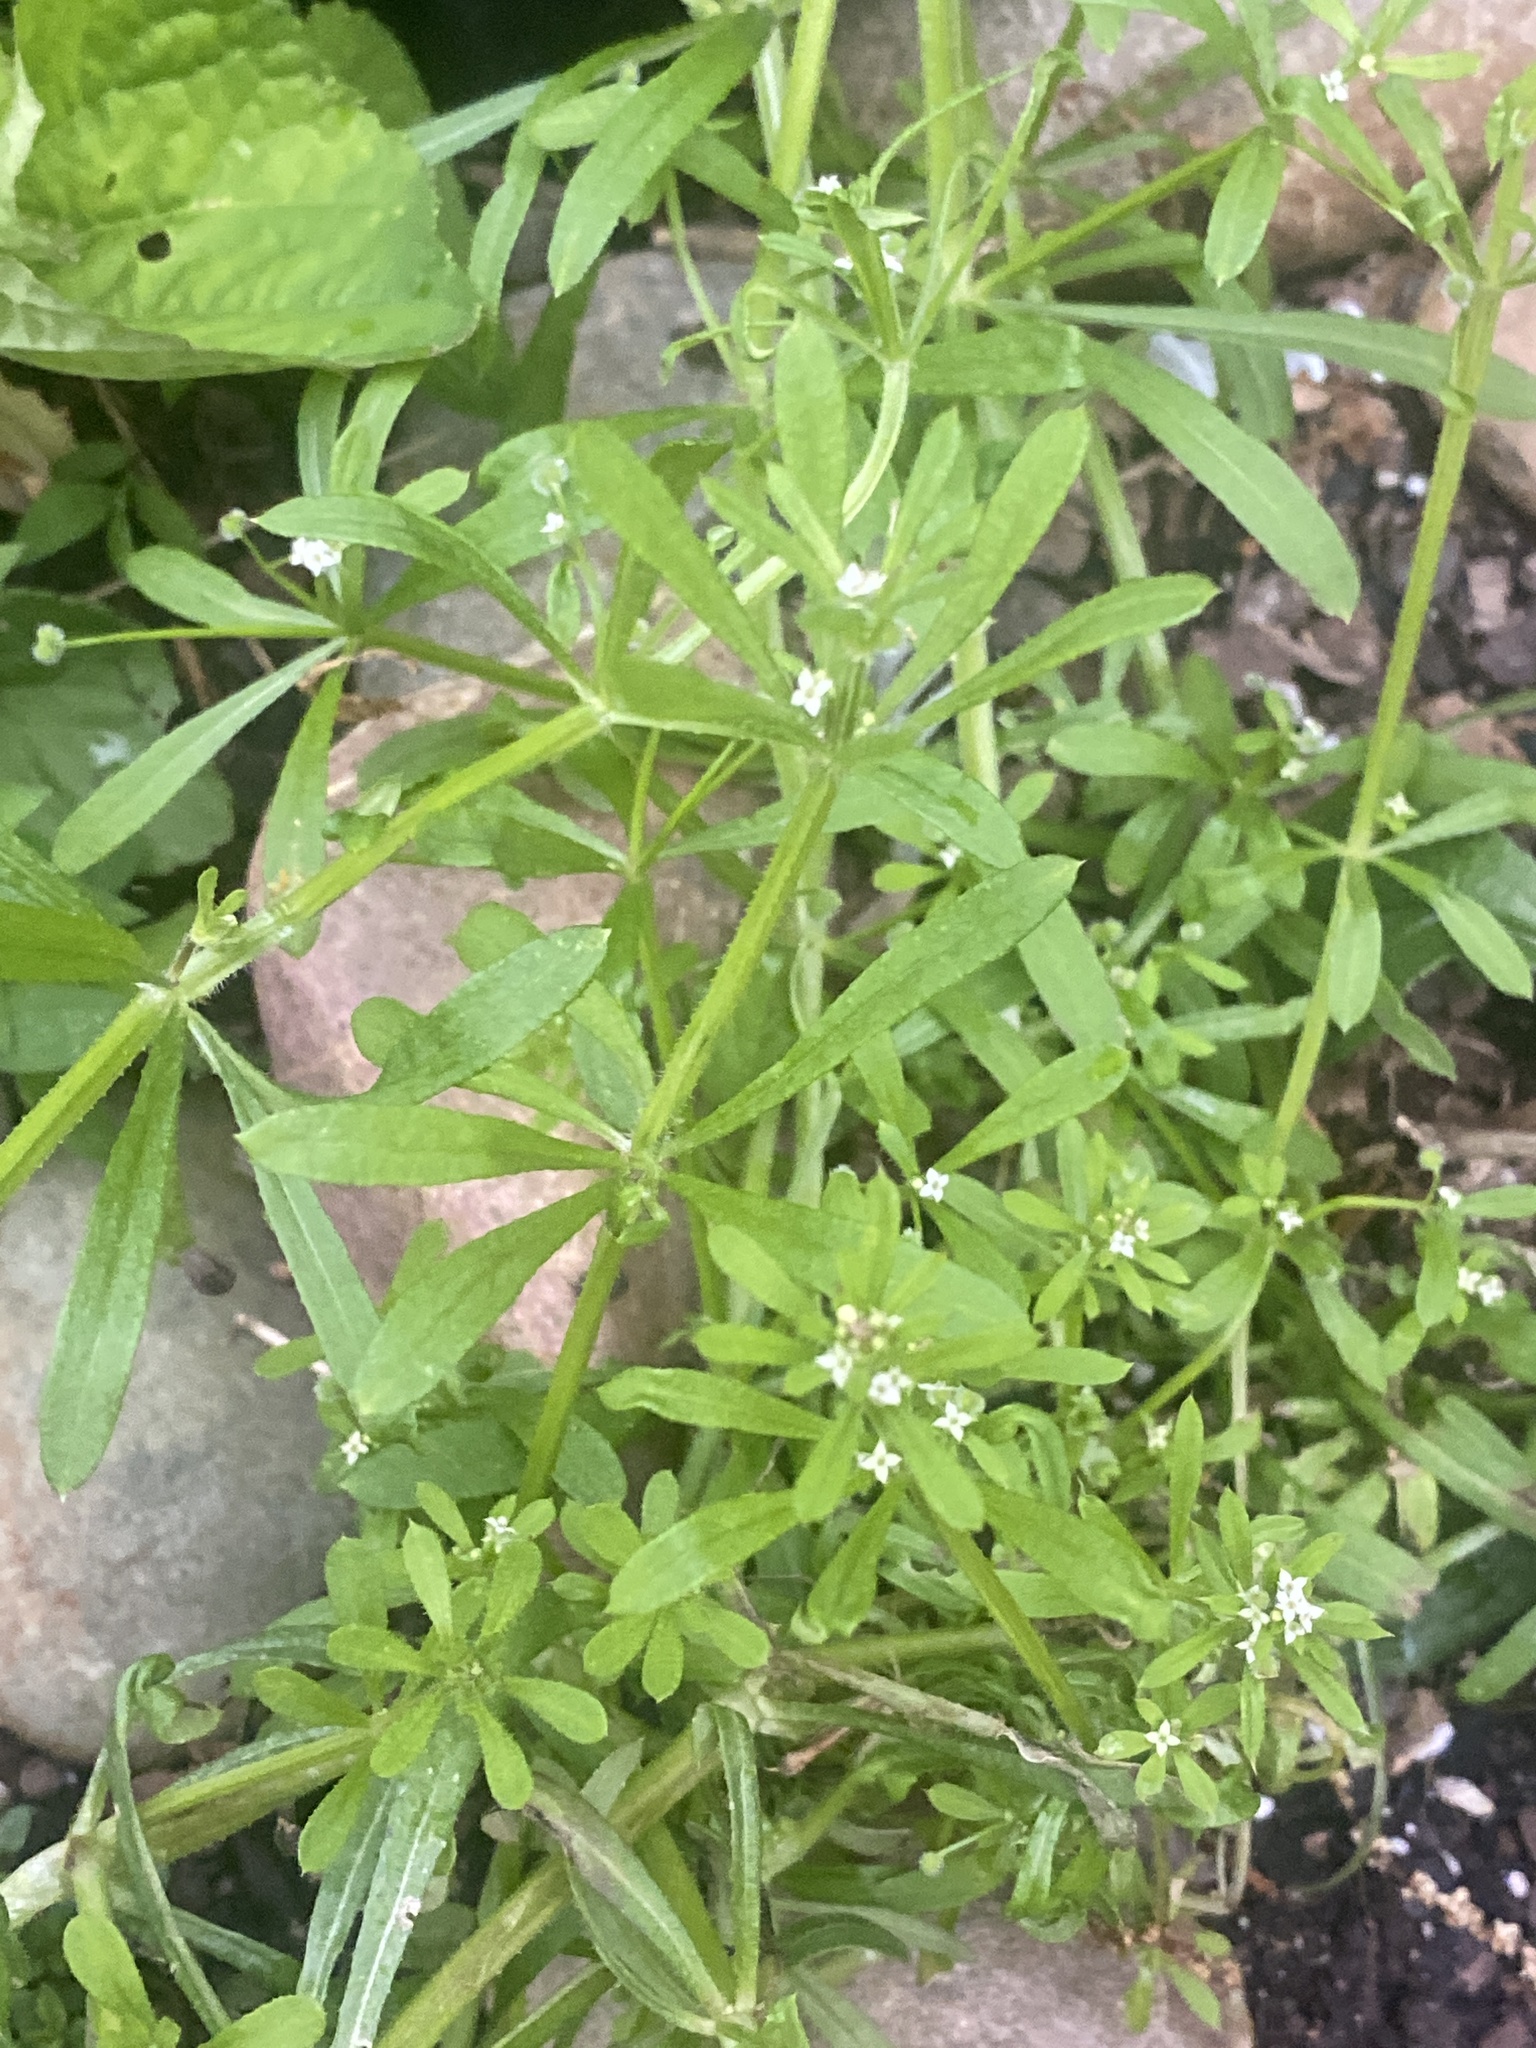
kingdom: Plantae
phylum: Tracheophyta
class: Magnoliopsida
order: Gentianales
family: Rubiaceae
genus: Galium
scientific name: Galium aparine
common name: Cleavers
